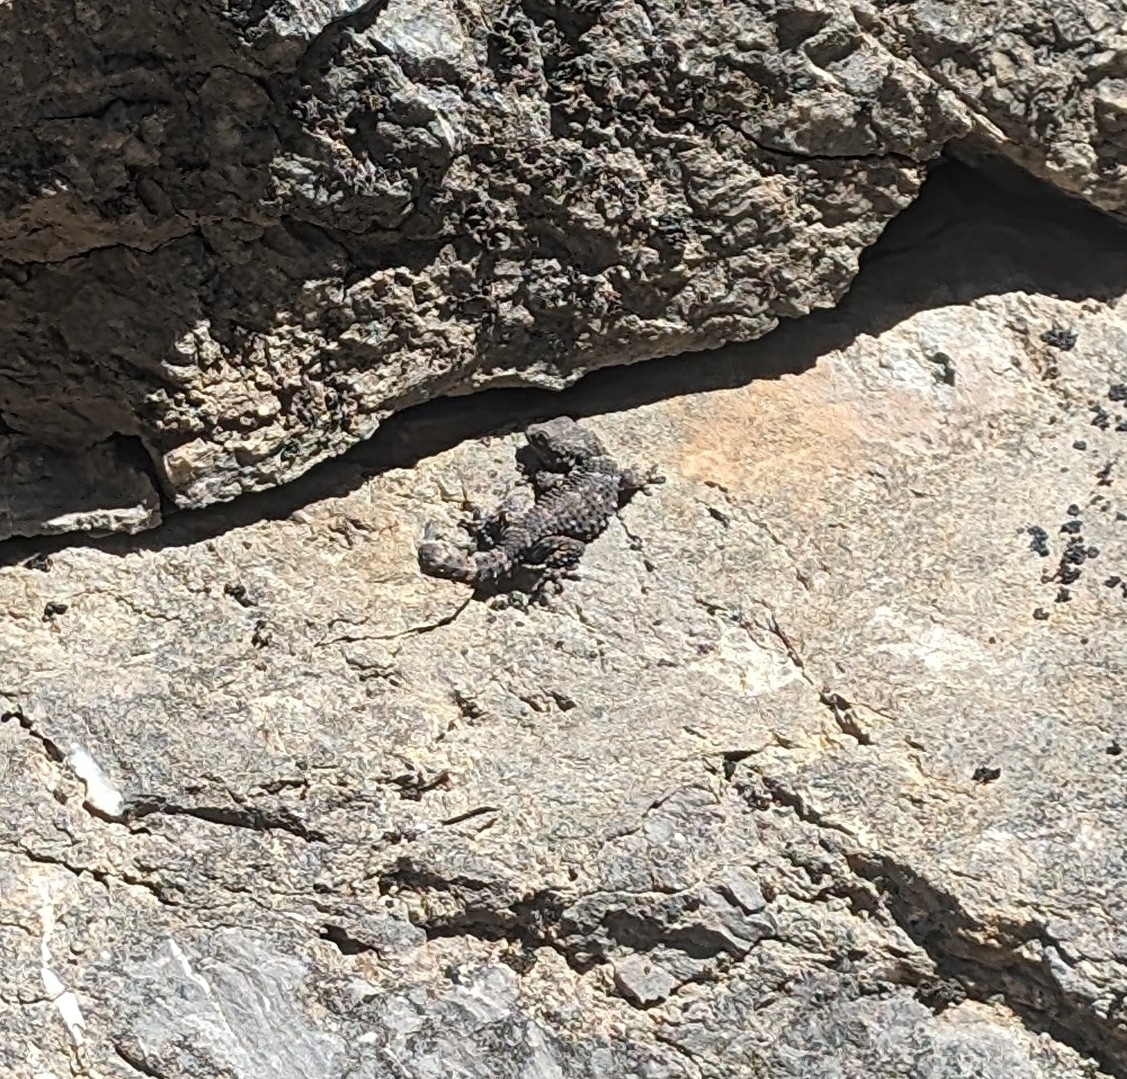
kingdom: Animalia
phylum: Chordata
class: Squamata
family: Phyllodactylidae
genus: Tarentola
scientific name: Tarentola mauritanica
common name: Moorish gecko
